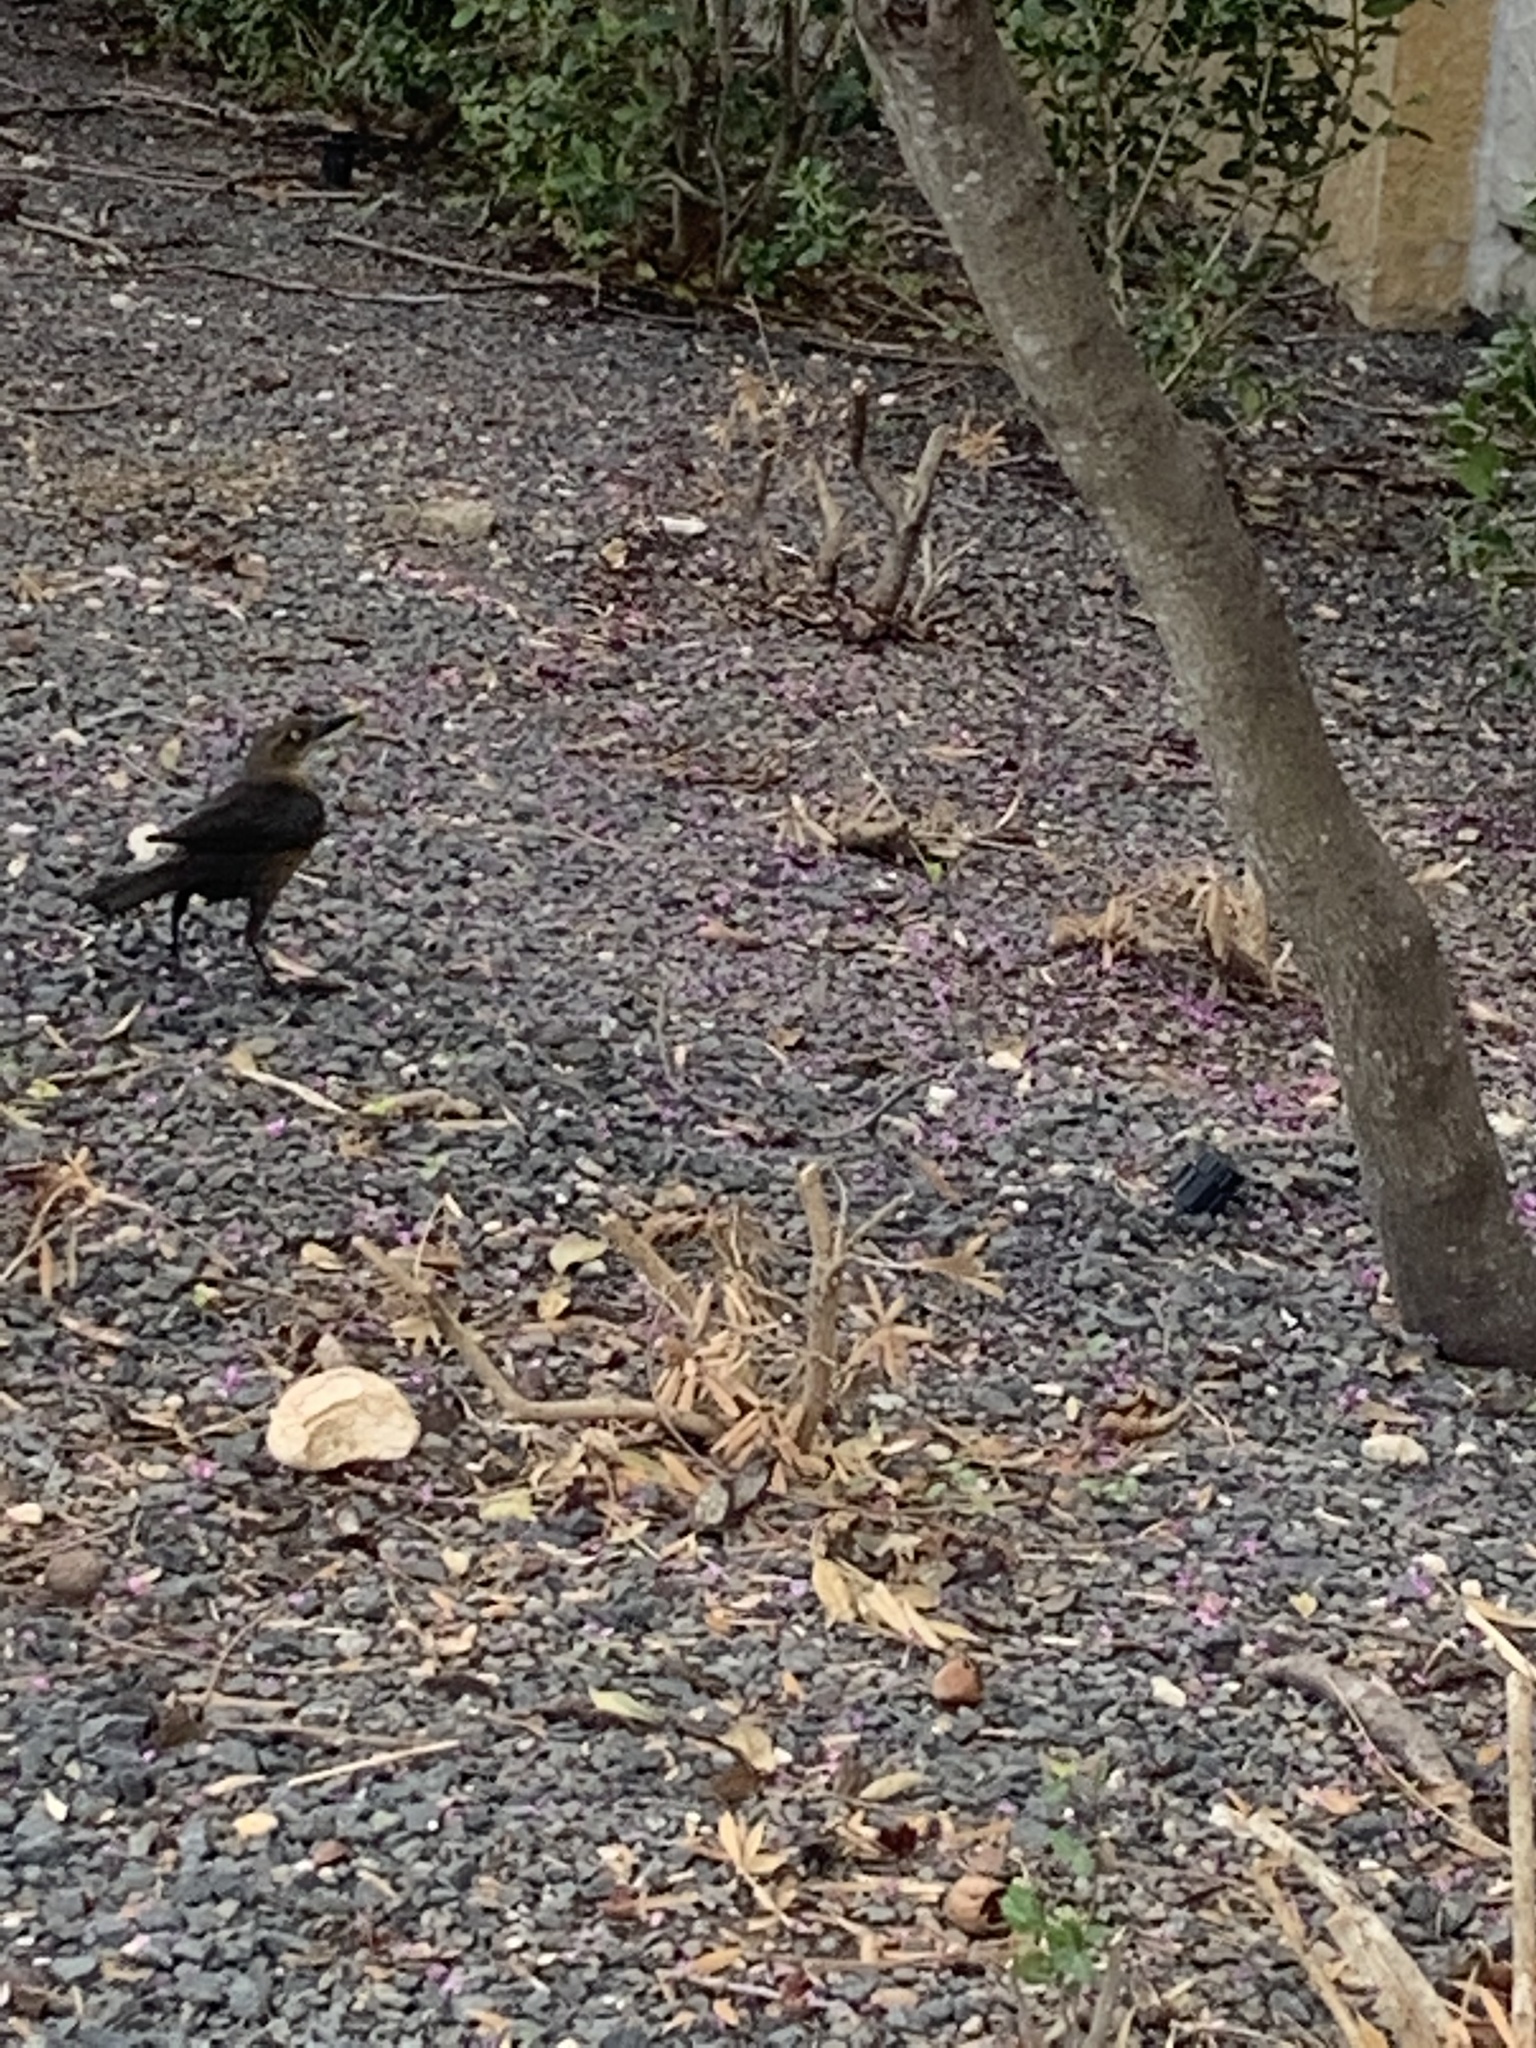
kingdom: Animalia
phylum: Chordata
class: Aves
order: Passeriformes
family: Icteridae
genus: Quiscalus
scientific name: Quiscalus mexicanus
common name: Great-tailed grackle
